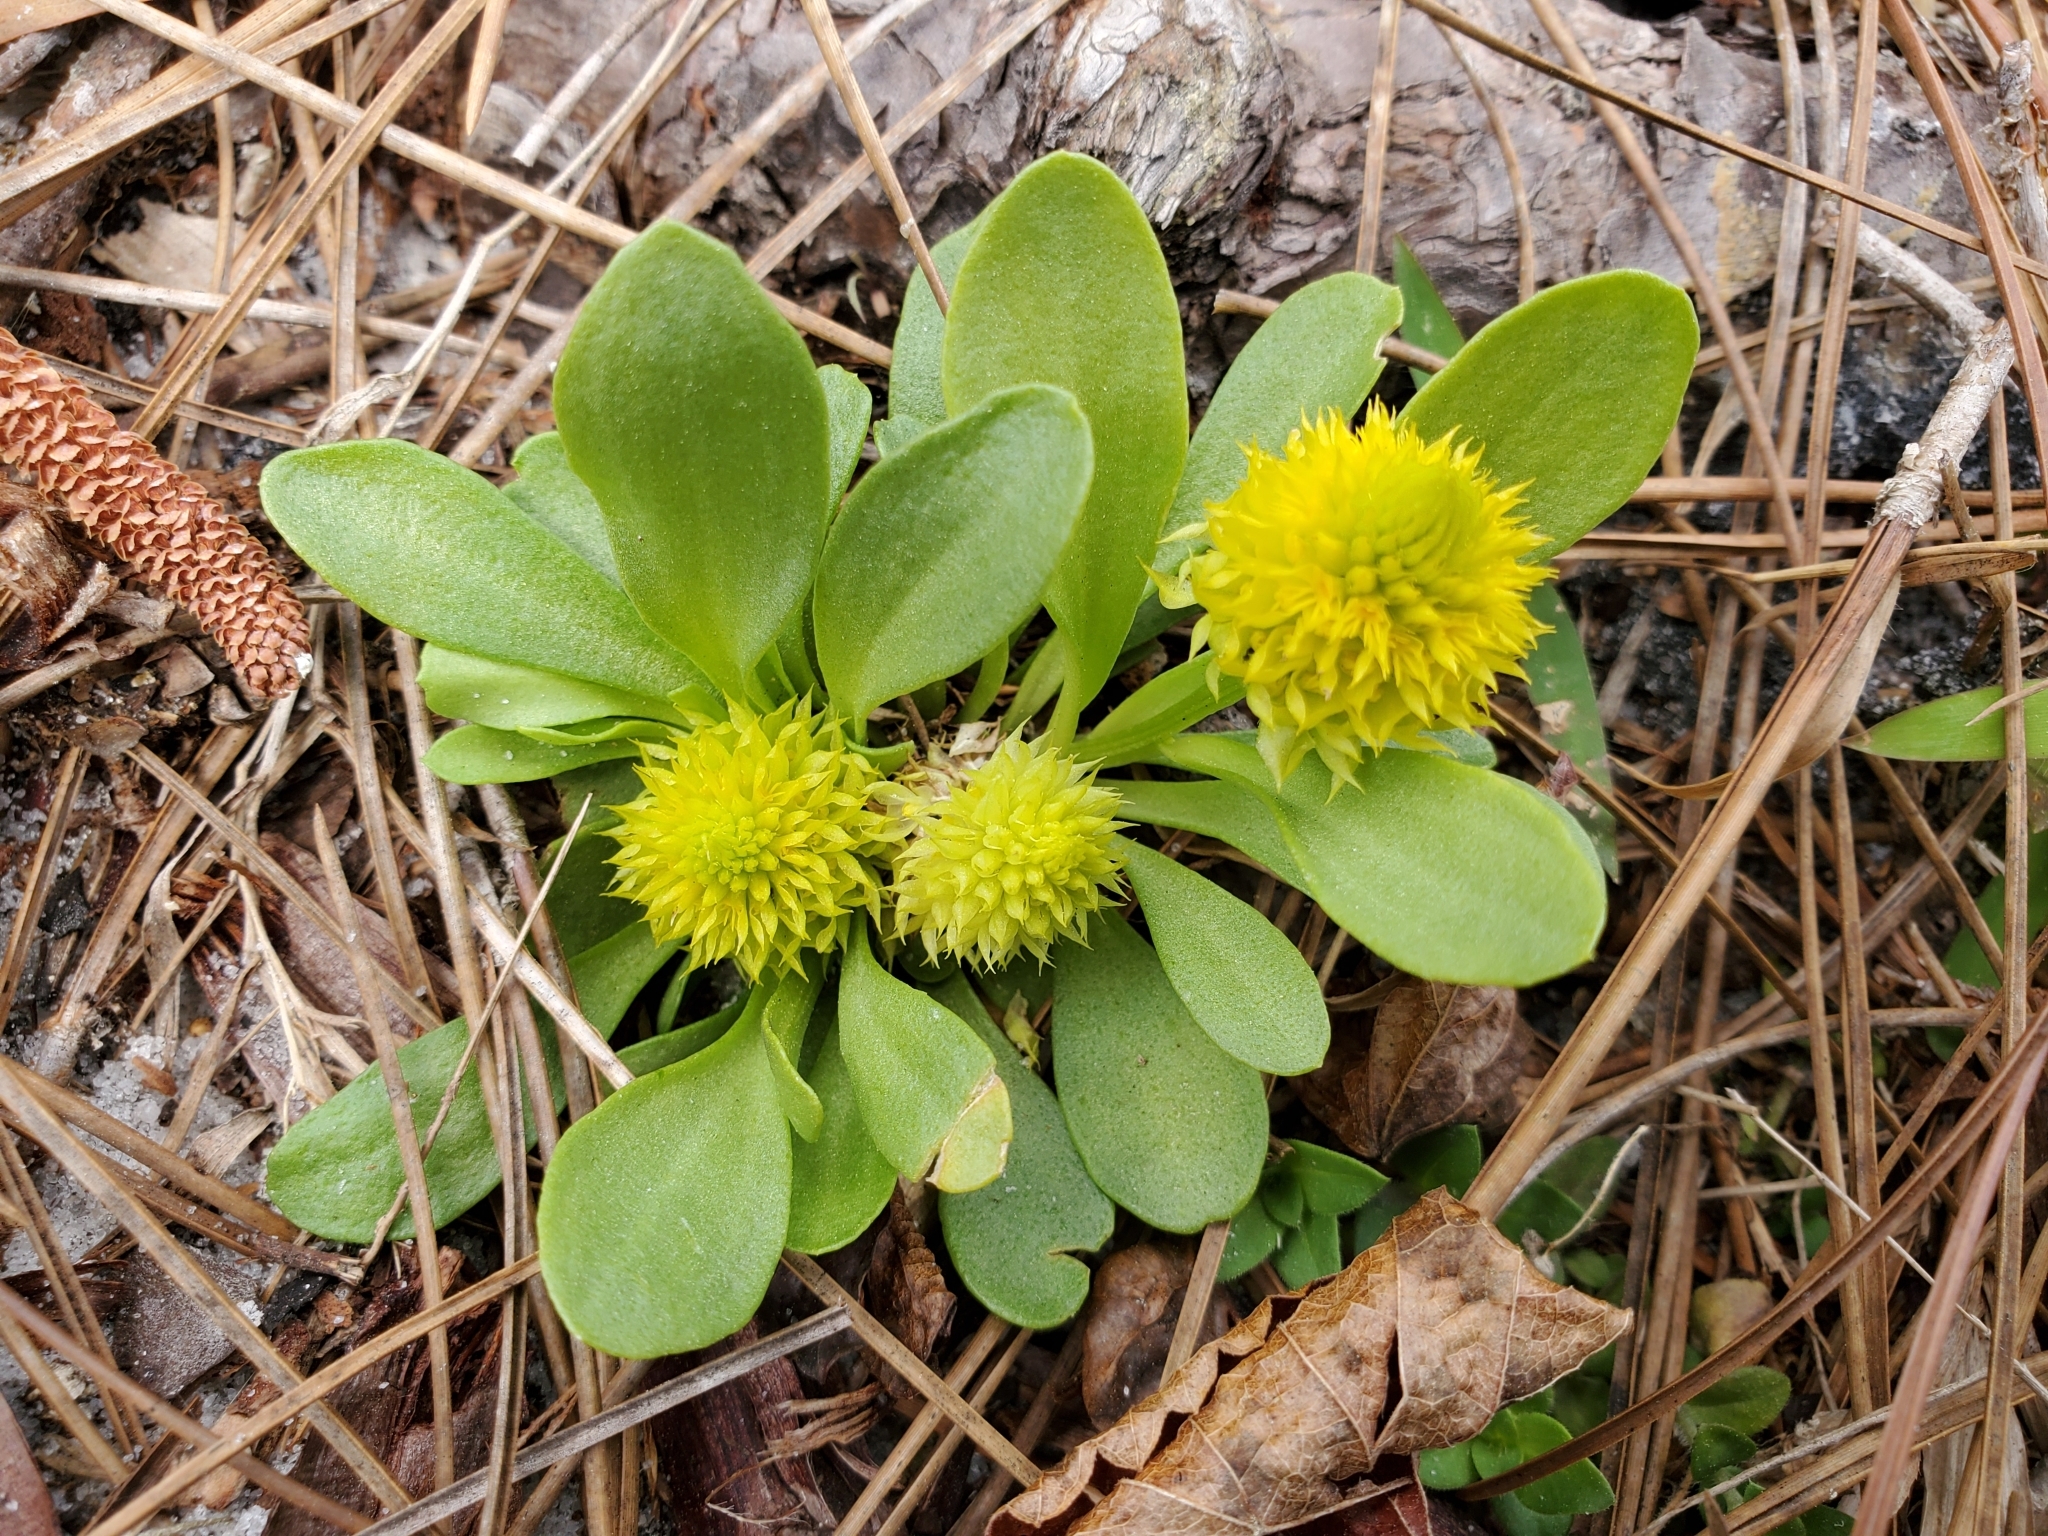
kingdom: Plantae
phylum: Tracheophyta
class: Magnoliopsida
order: Fabales
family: Polygalaceae
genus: Polygala
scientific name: Polygala nana
